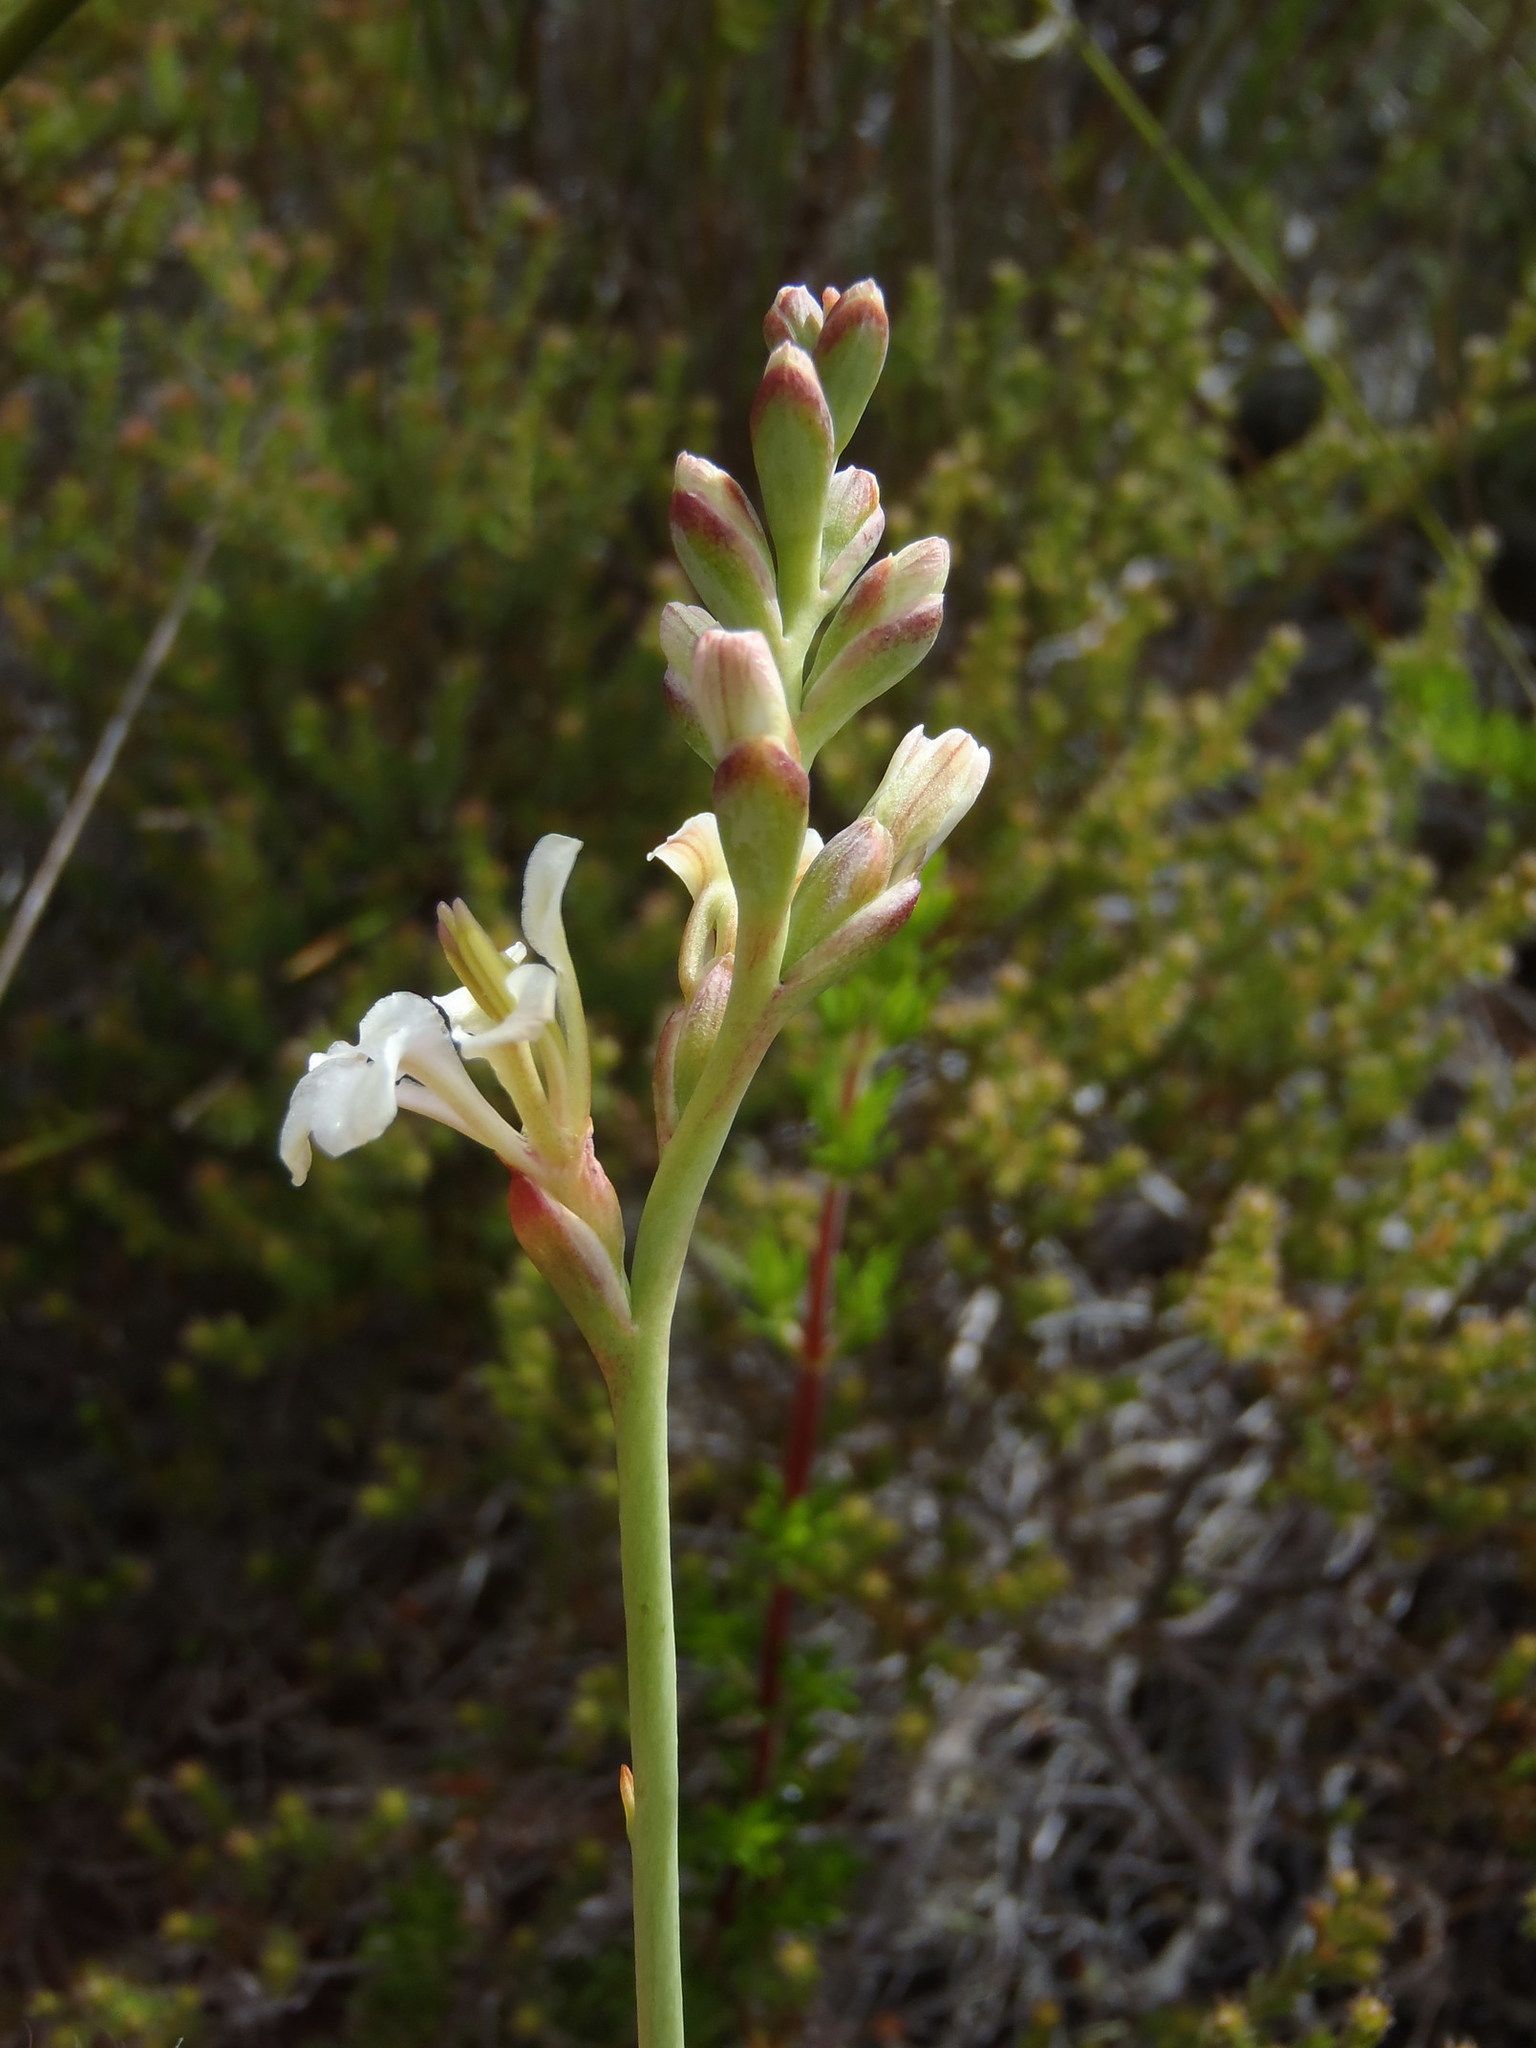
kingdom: Plantae
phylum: Tracheophyta
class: Liliopsida
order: Asparagales
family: Iridaceae
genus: Tritoniopsis
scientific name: Tritoniopsis unguicularis
